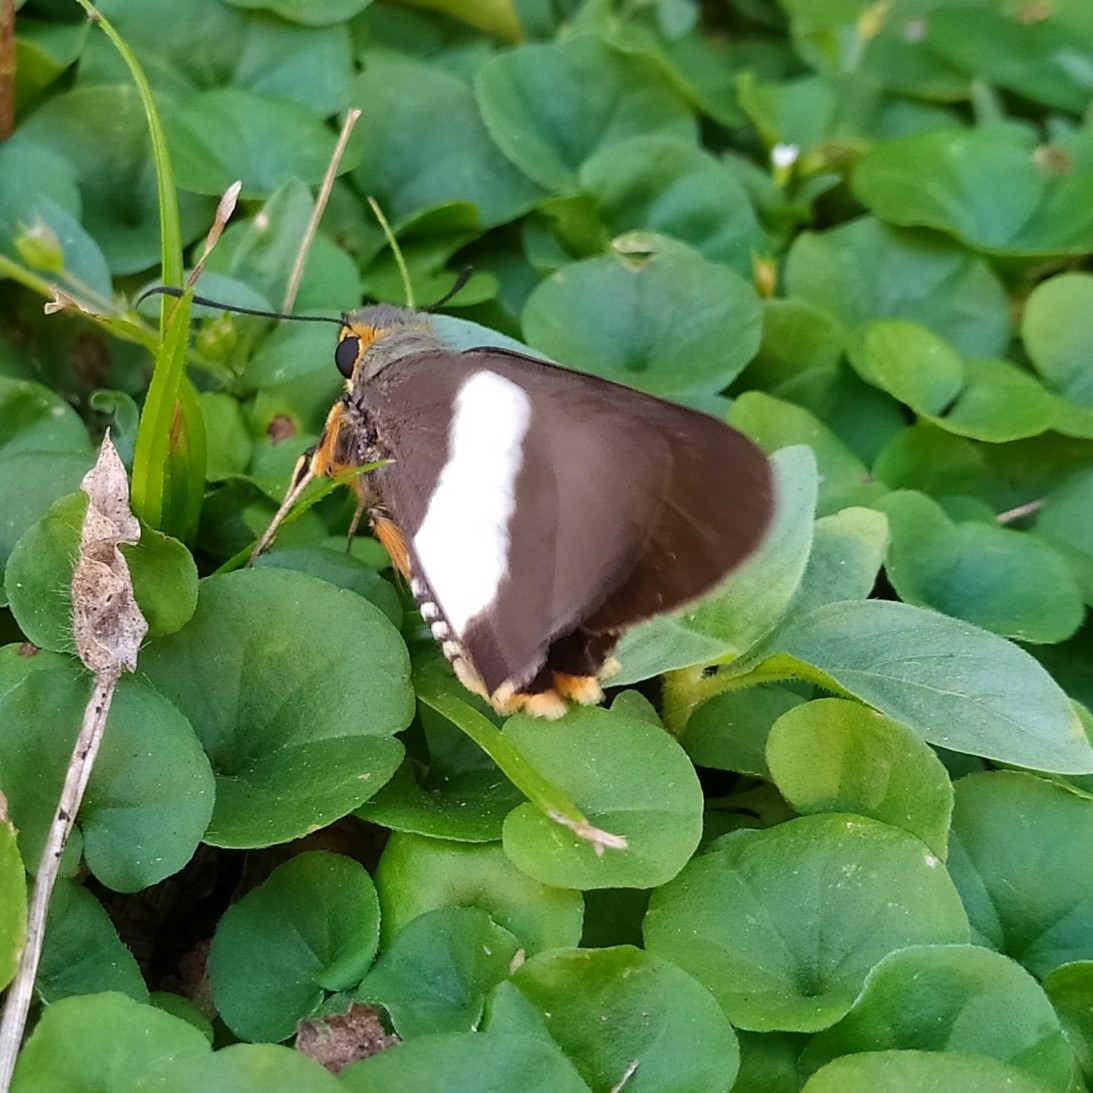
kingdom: Animalia
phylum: Arthropoda
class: Insecta
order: Lepidoptera
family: Hesperiidae
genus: Coeliades
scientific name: Coeliades forestan
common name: Striped policeman
